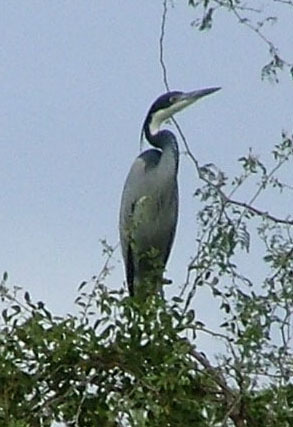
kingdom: Animalia
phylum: Chordata
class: Aves
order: Pelecaniformes
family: Ardeidae
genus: Ardea
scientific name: Ardea melanocephala
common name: Black-headed heron
